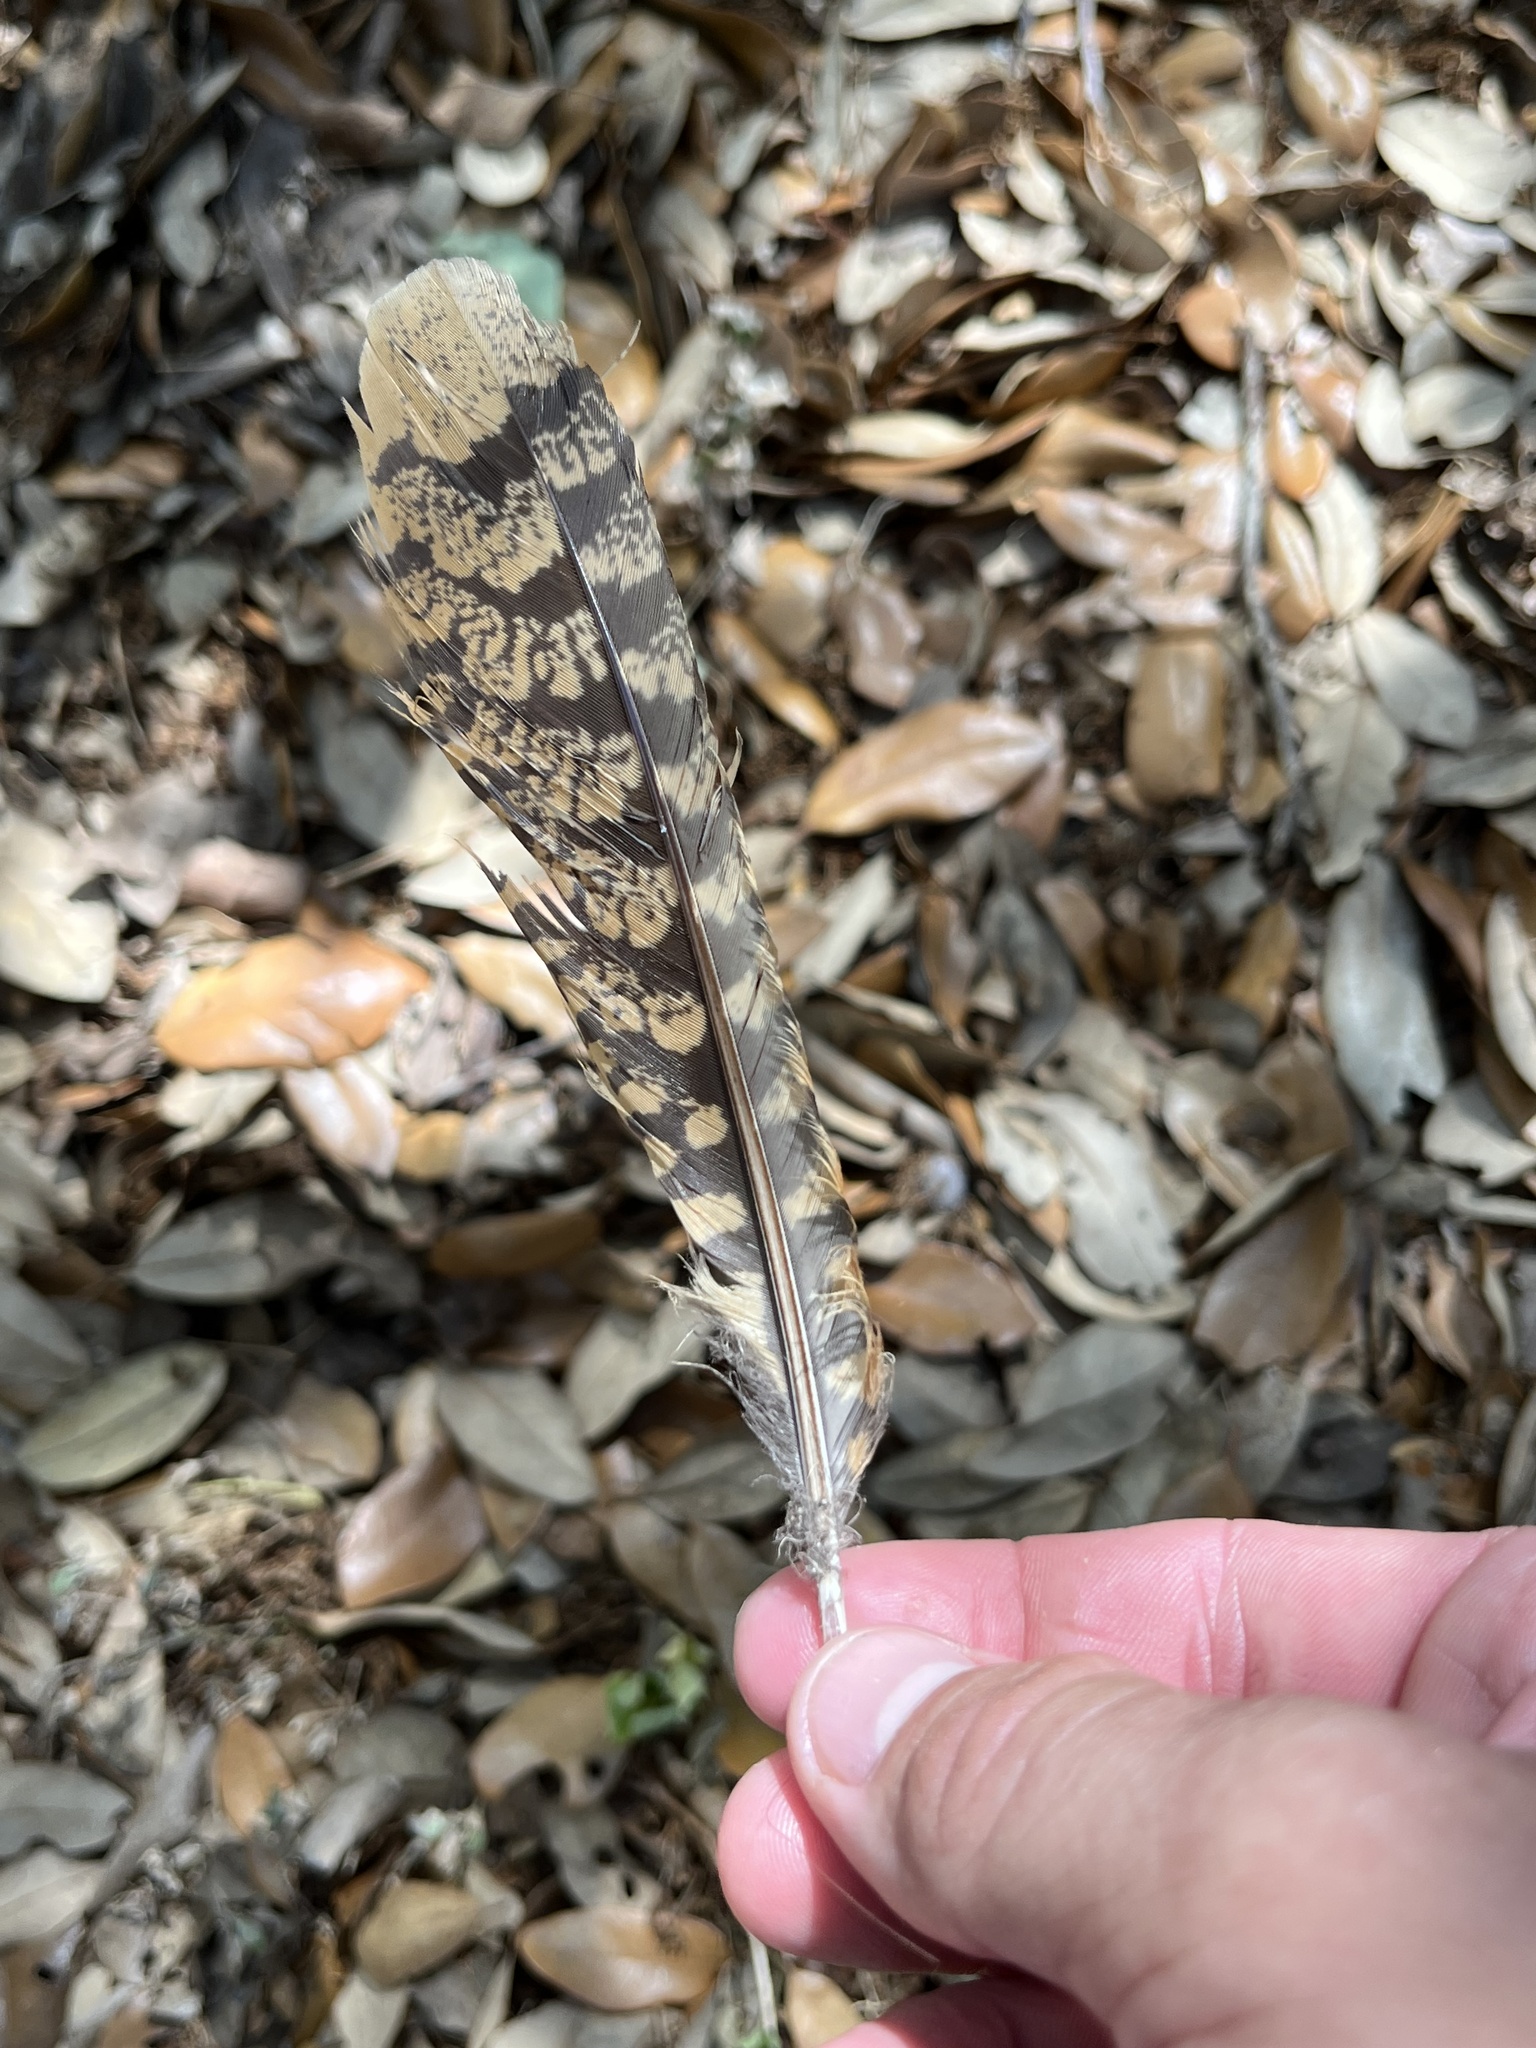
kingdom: Animalia
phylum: Chordata
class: Aves
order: Caprimulgiformes
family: Caprimulgidae
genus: Antrostomus
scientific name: Antrostomus carolinensis
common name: Chuck-will's-widow
